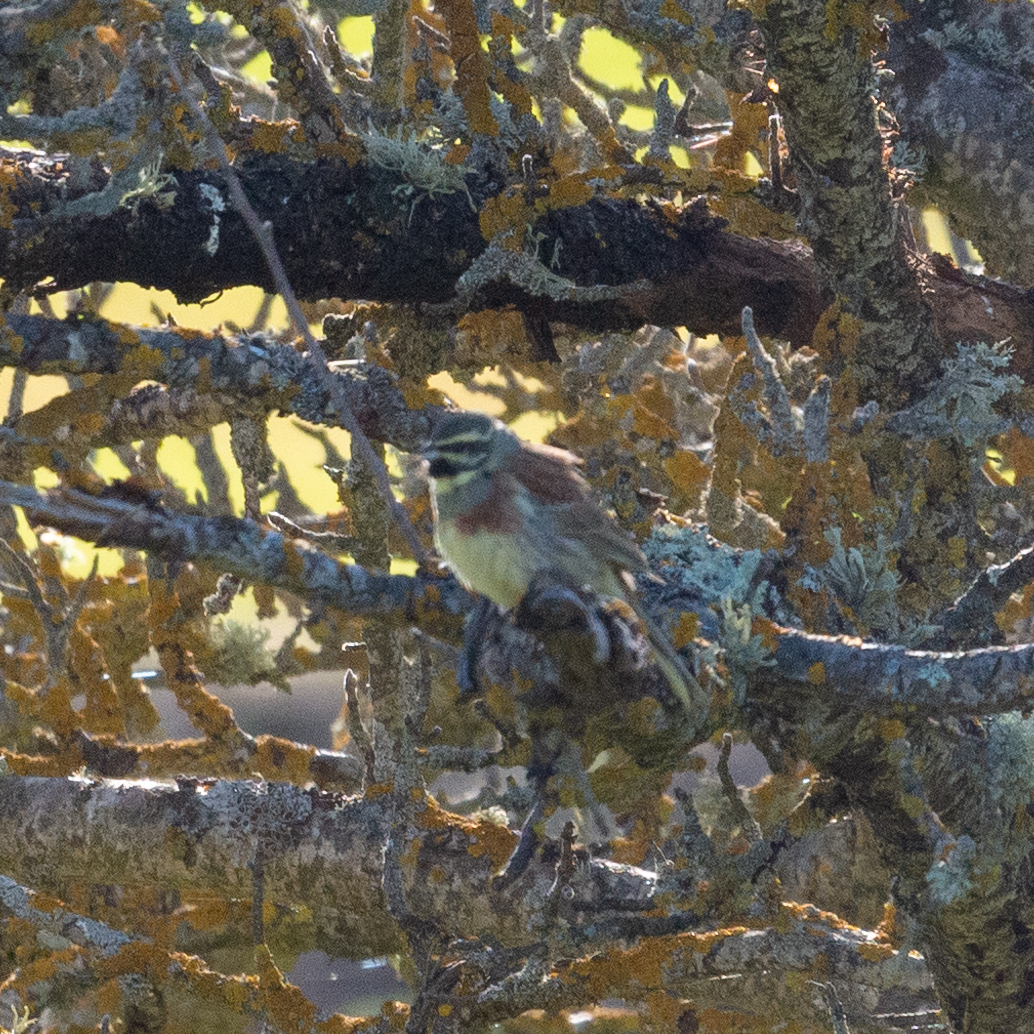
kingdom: Animalia
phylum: Chordata
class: Aves
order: Passeriformes
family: Emberizidae
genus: Emberiza
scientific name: Emberiza cirlus
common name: Cirl bunting
